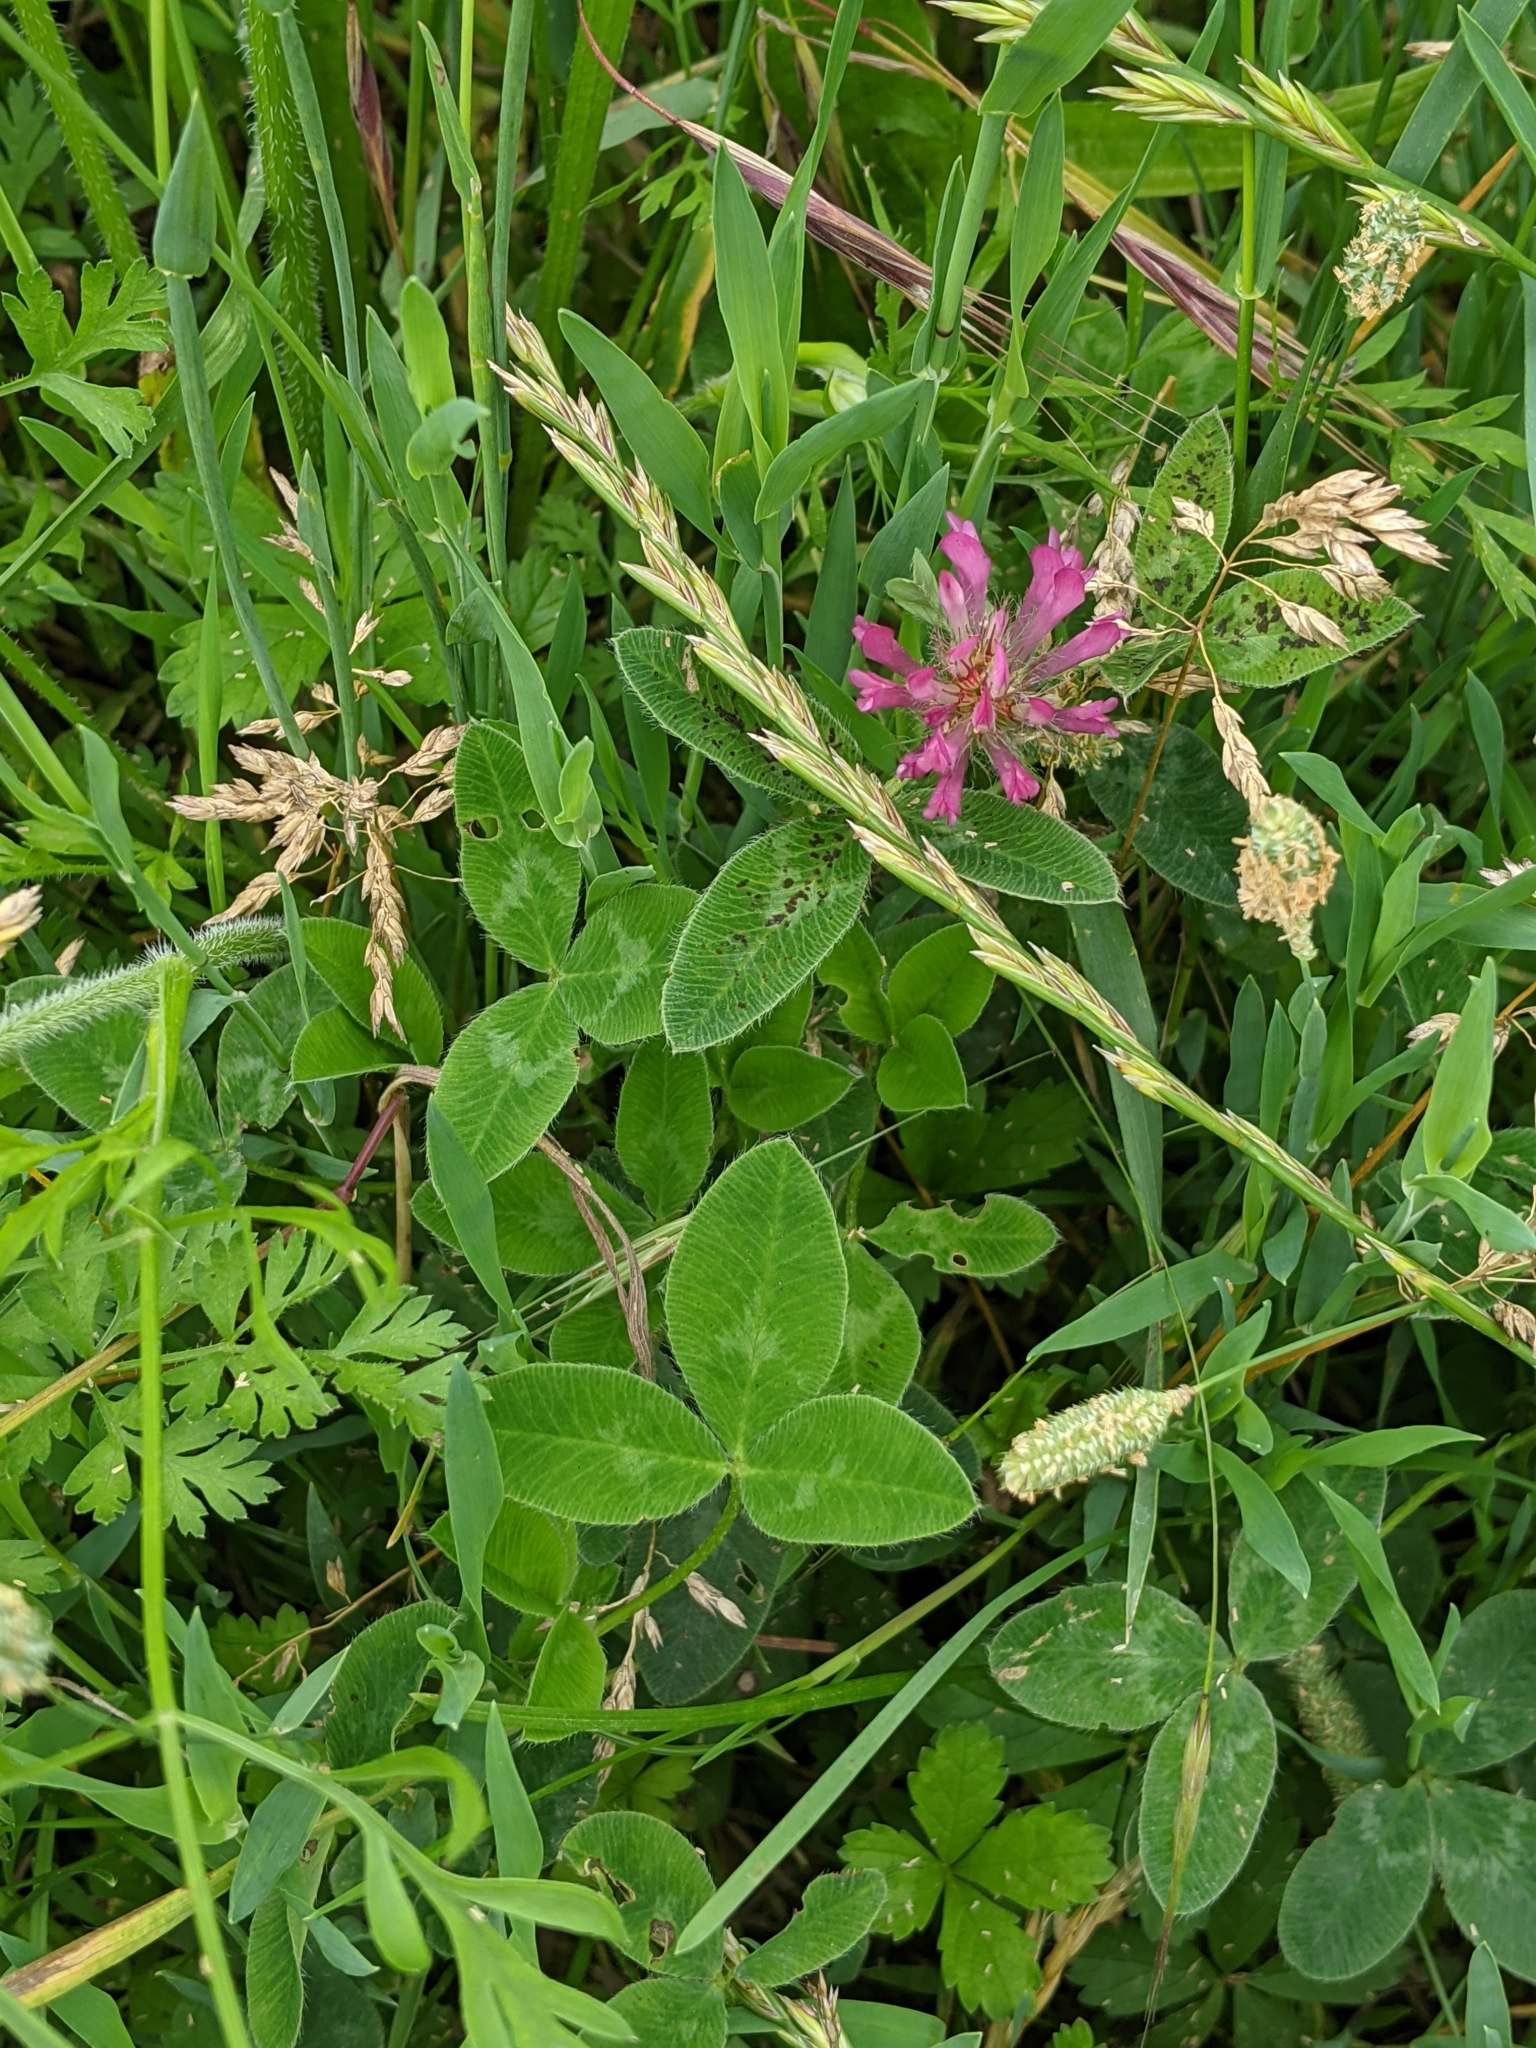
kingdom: Plantae
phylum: Tracheophyta
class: Magnoliopsida
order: Fabales
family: Fabaceae
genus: Trifolium
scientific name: Trifolium pratense
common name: Red clover
